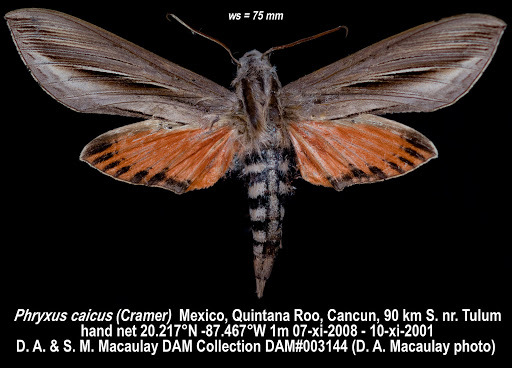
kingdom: Animalia
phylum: Arthropoda
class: Insecta
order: Lepidoptera
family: Sphingidae
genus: Phryxus
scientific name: Phryxus caicus
